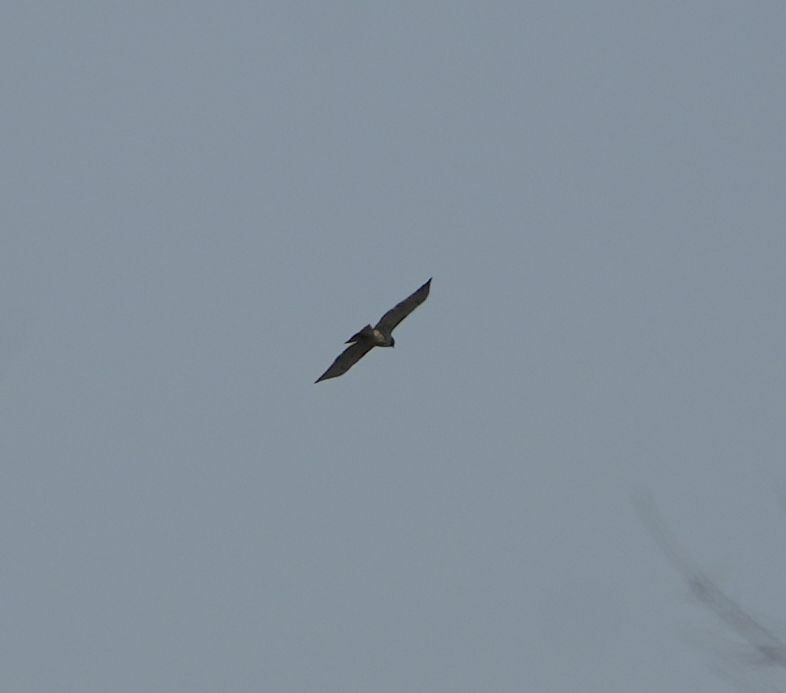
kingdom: Animalia
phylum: Chordata
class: Aves
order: Accipitriformes
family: Accipitridae
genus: Buteo
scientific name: Buteo jamaicensis
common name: Red-tailed hawk
